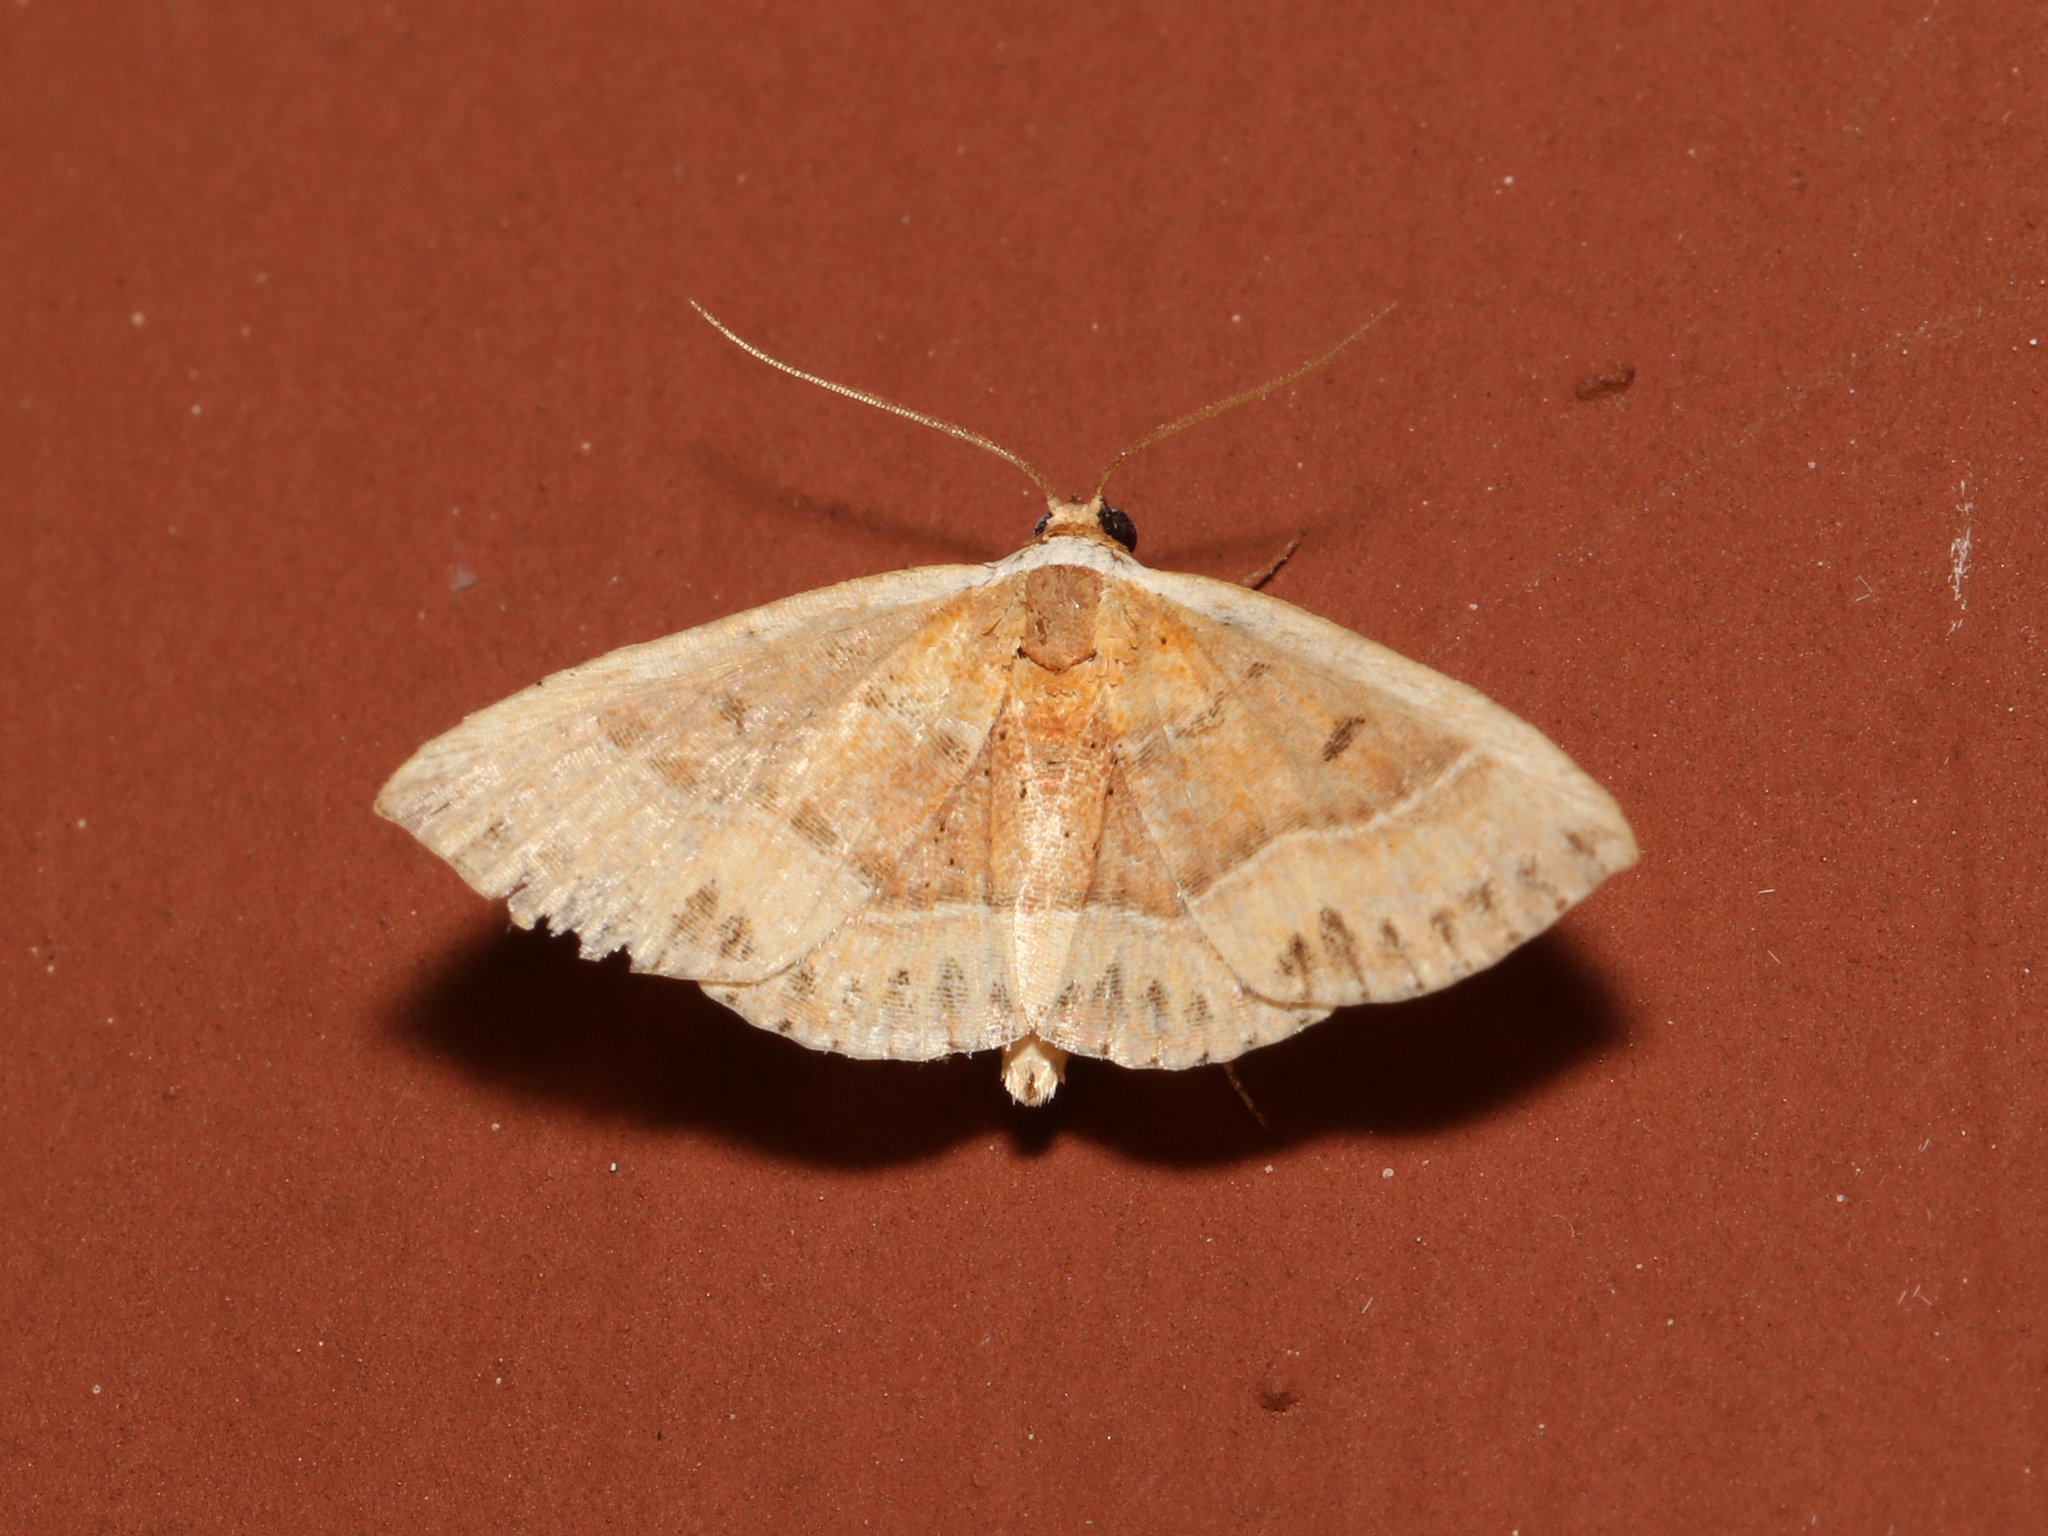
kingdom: Animalia
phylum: Arthropoda
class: Insecta
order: Lepidoptera
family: Noctuidae
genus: Ozarba
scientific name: Ozarba albocostaliata
